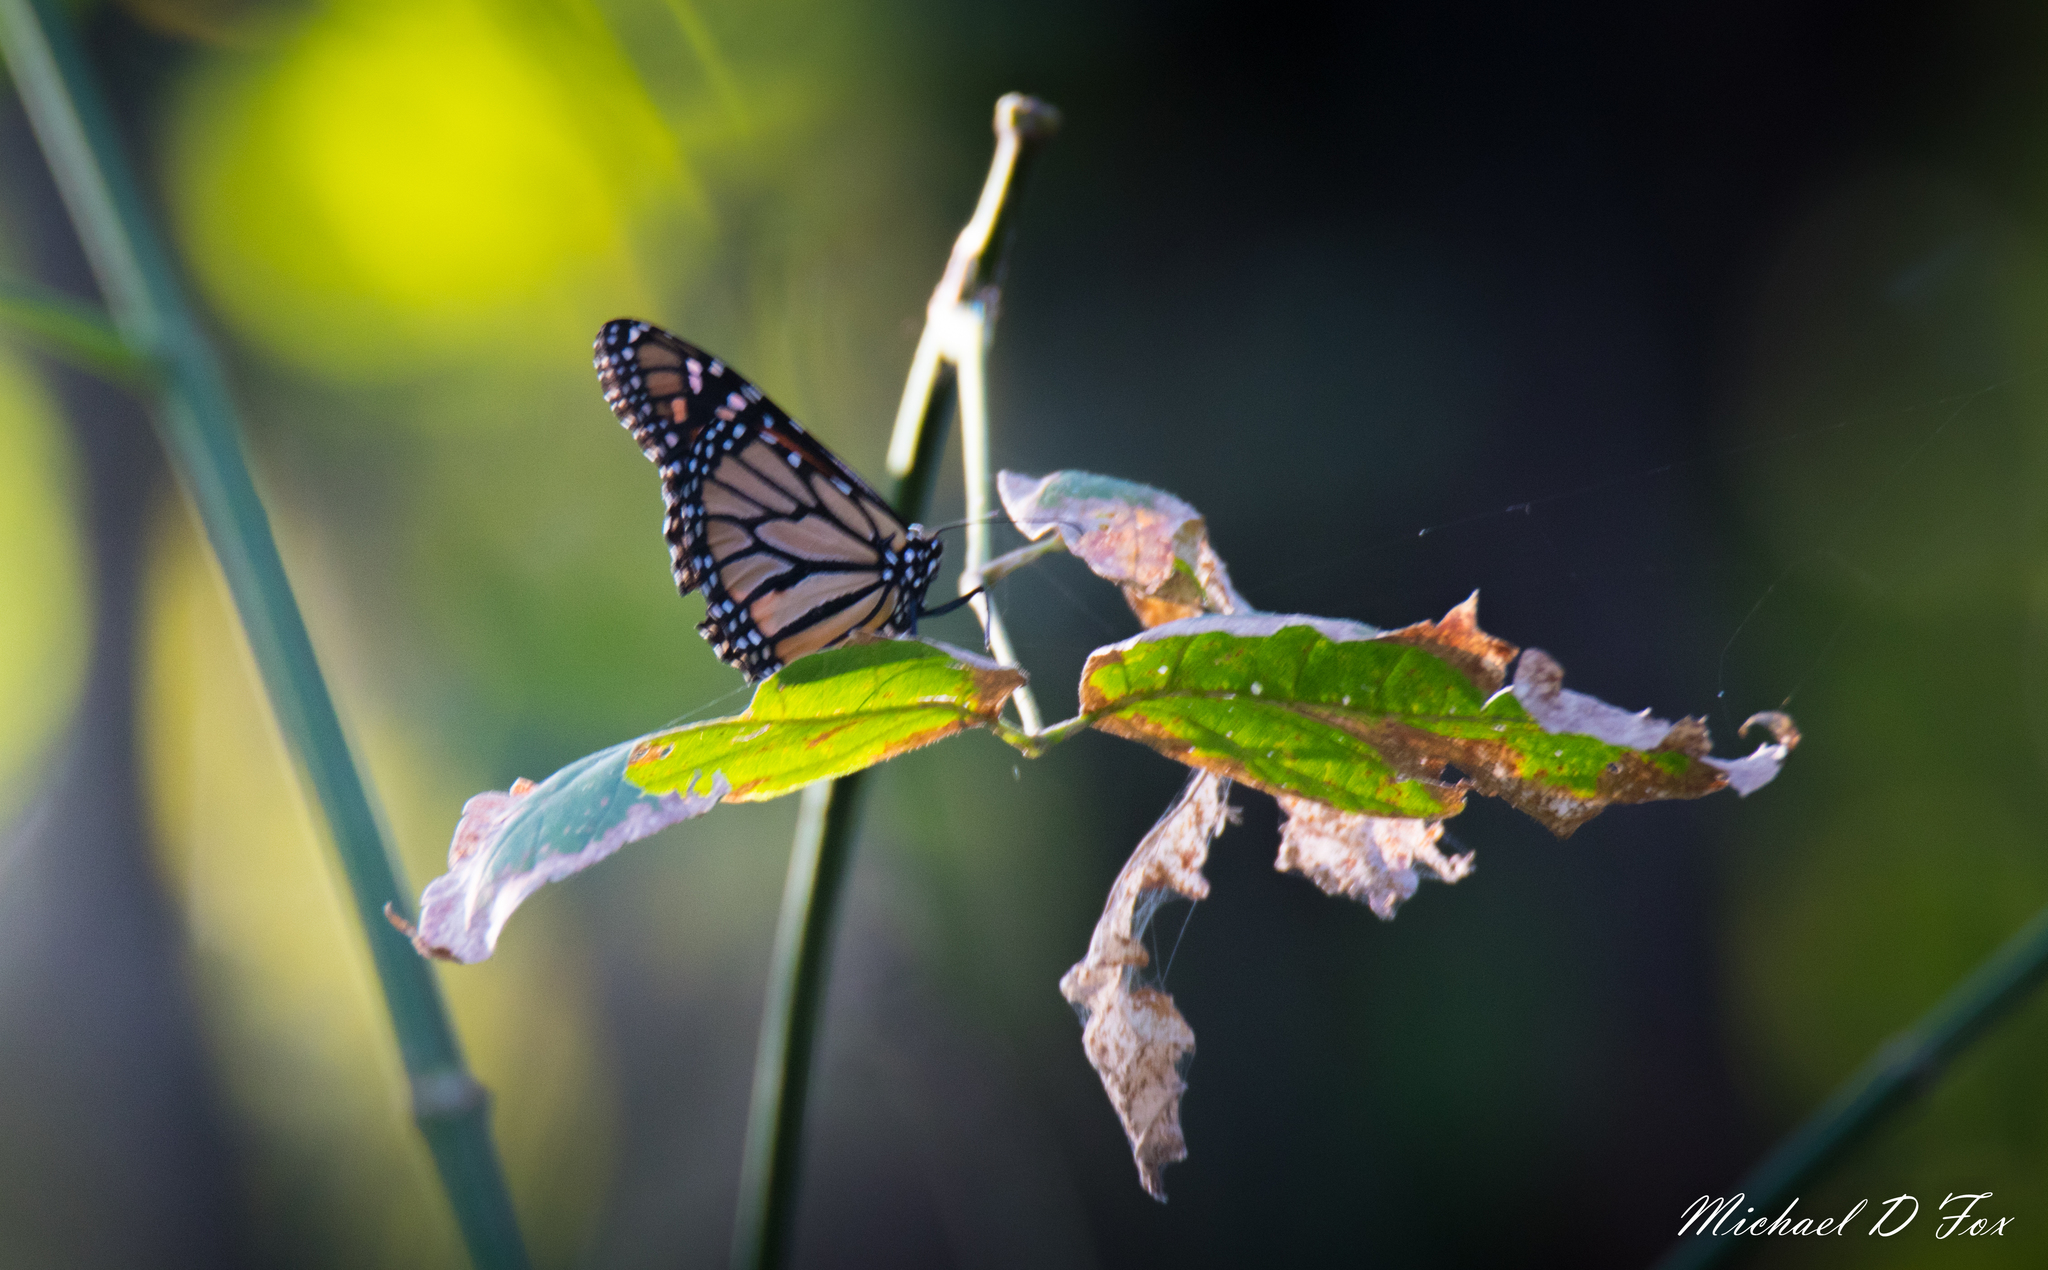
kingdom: Animalia
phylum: Arthropoda
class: Insecta
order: Lepidoptera
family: Nymphalidae
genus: Danaus
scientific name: Danaus plexippus
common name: Monarch
